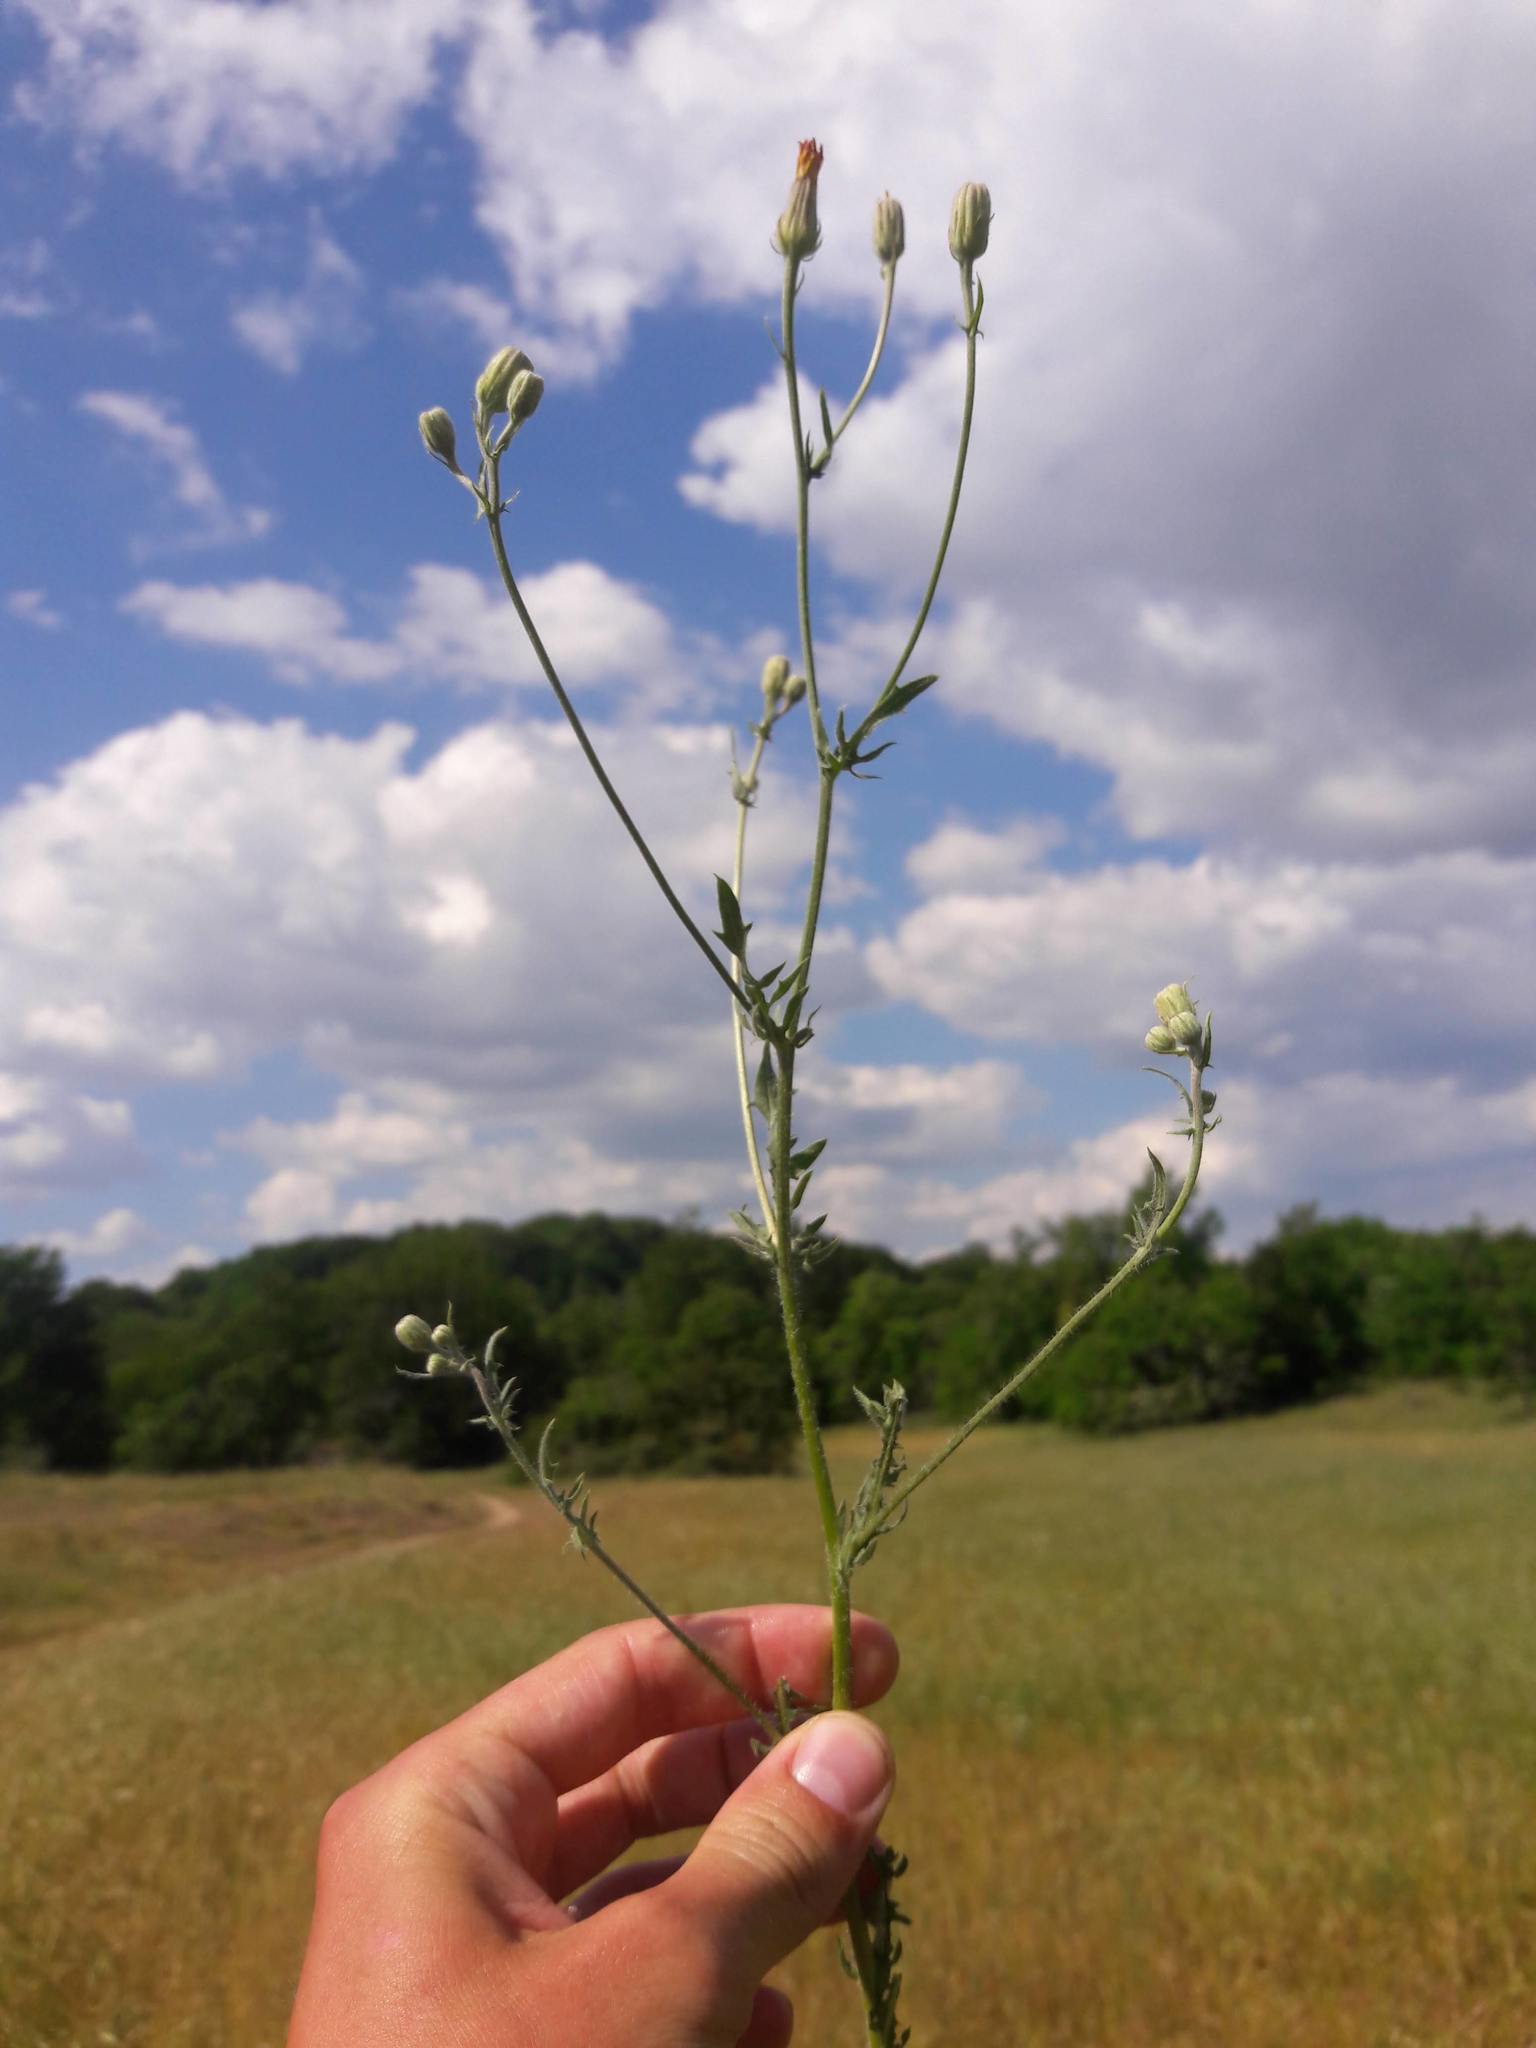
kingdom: Plantae
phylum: Tracheophyta
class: Magnoliopsida
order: Asterales
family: Asteraceae
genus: Crepis
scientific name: Crepis foetida
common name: Stinking hawk's-beard
